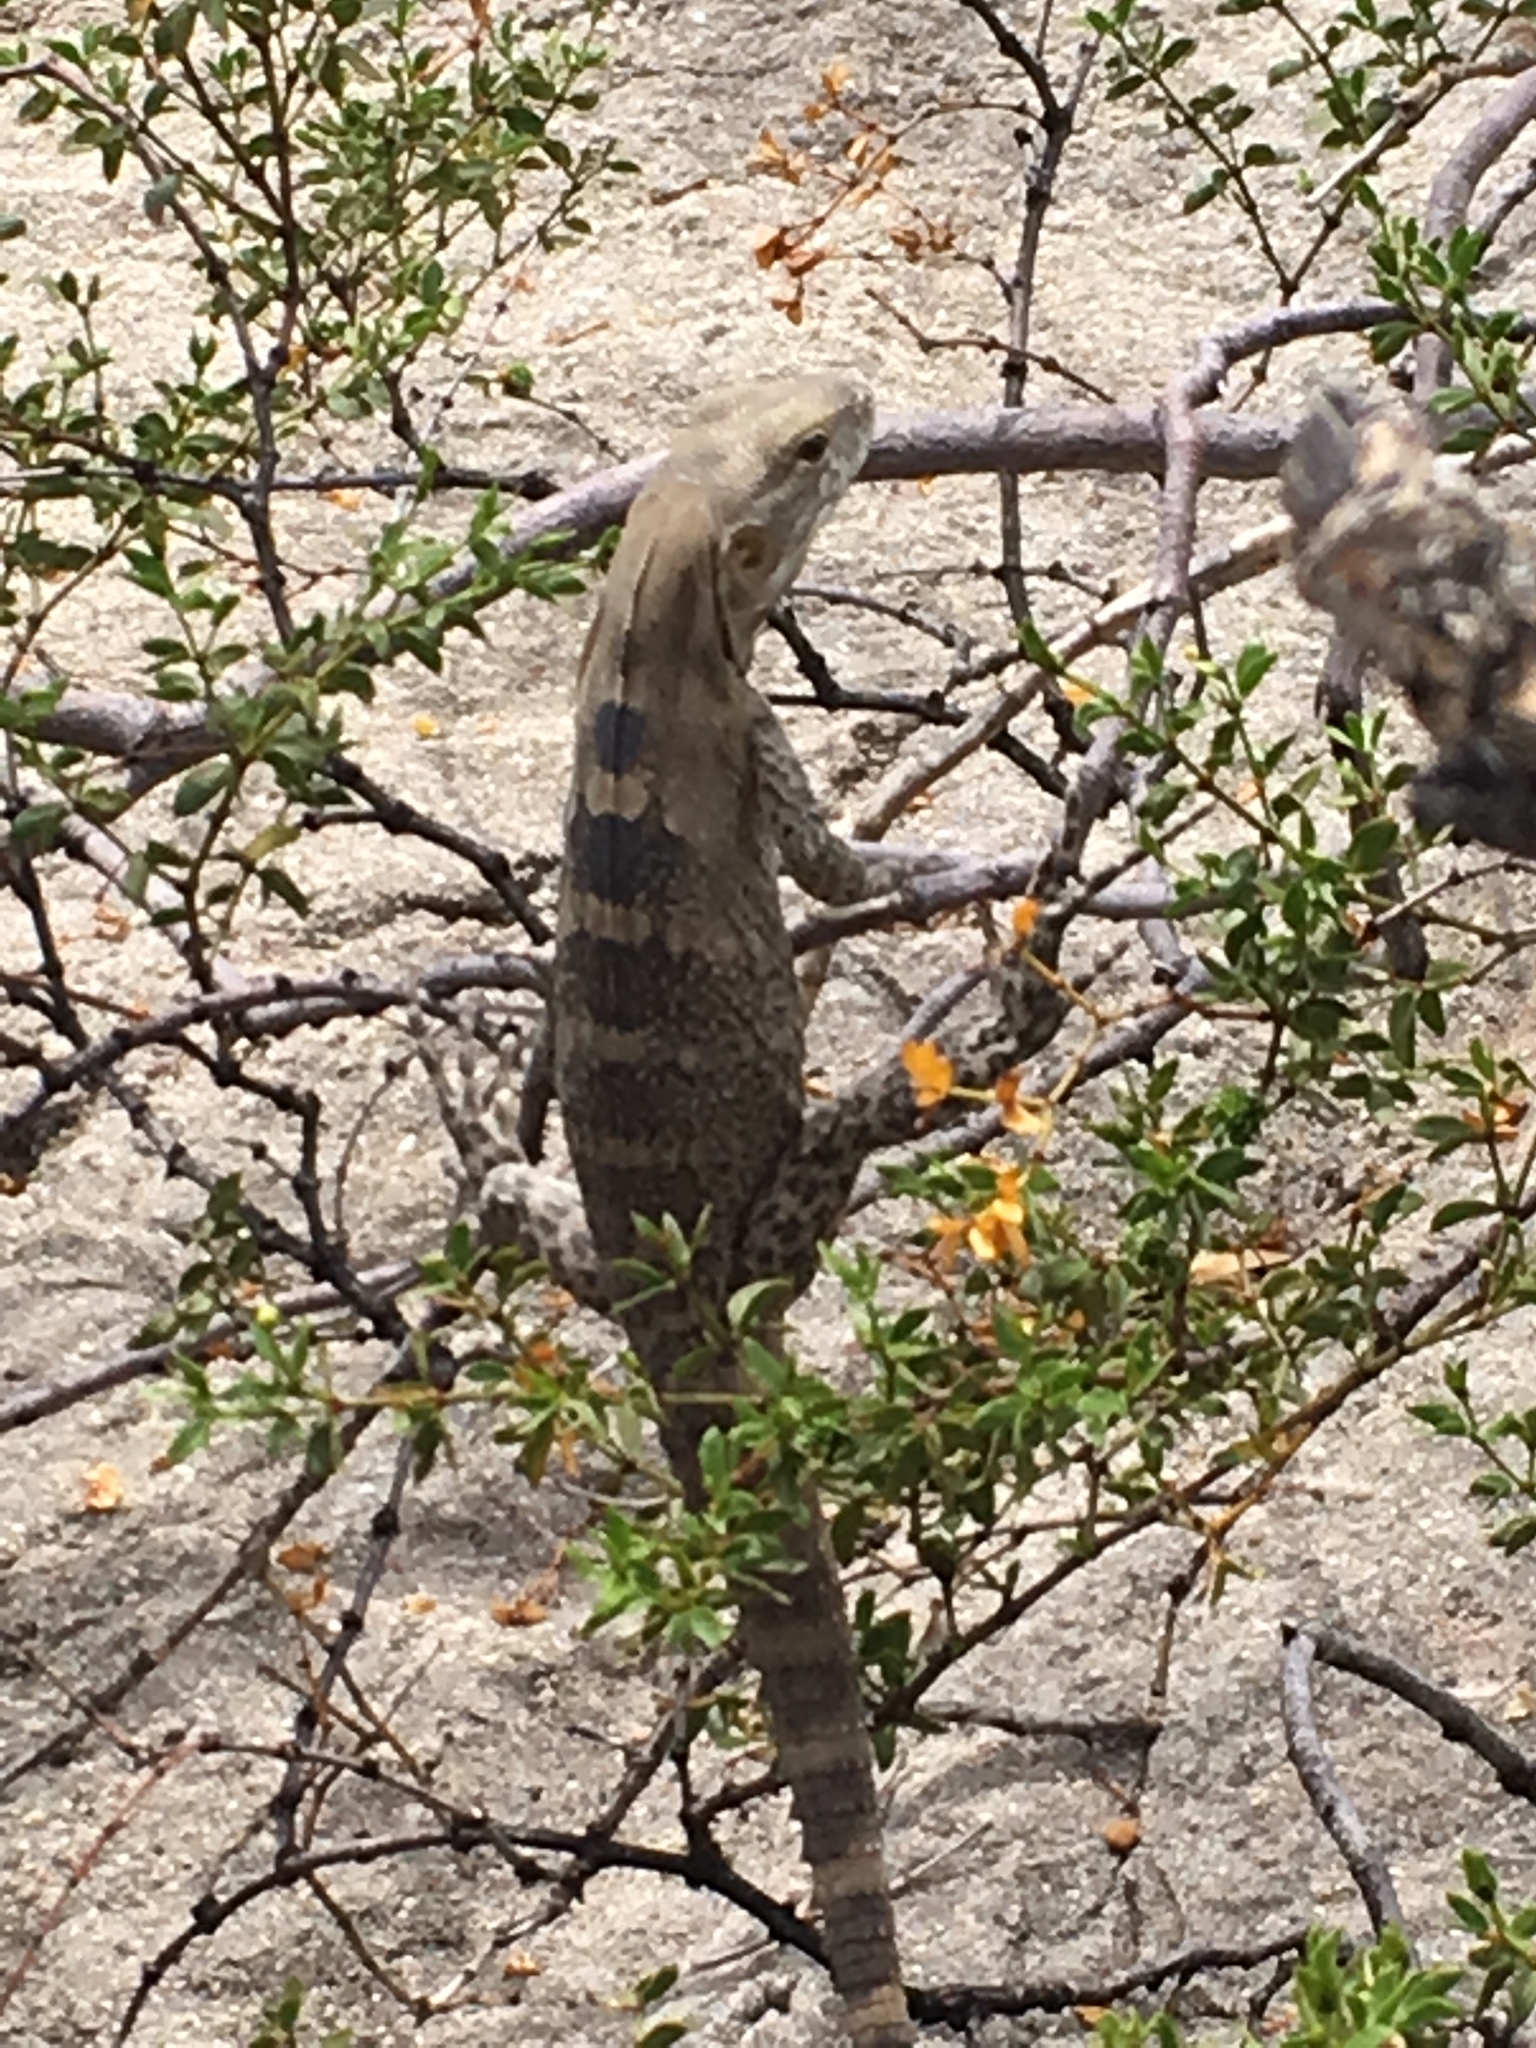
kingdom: Animalia
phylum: Chordata
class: Squamata
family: Iguanidae
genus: Ctenosaura
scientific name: Ctenosaura
